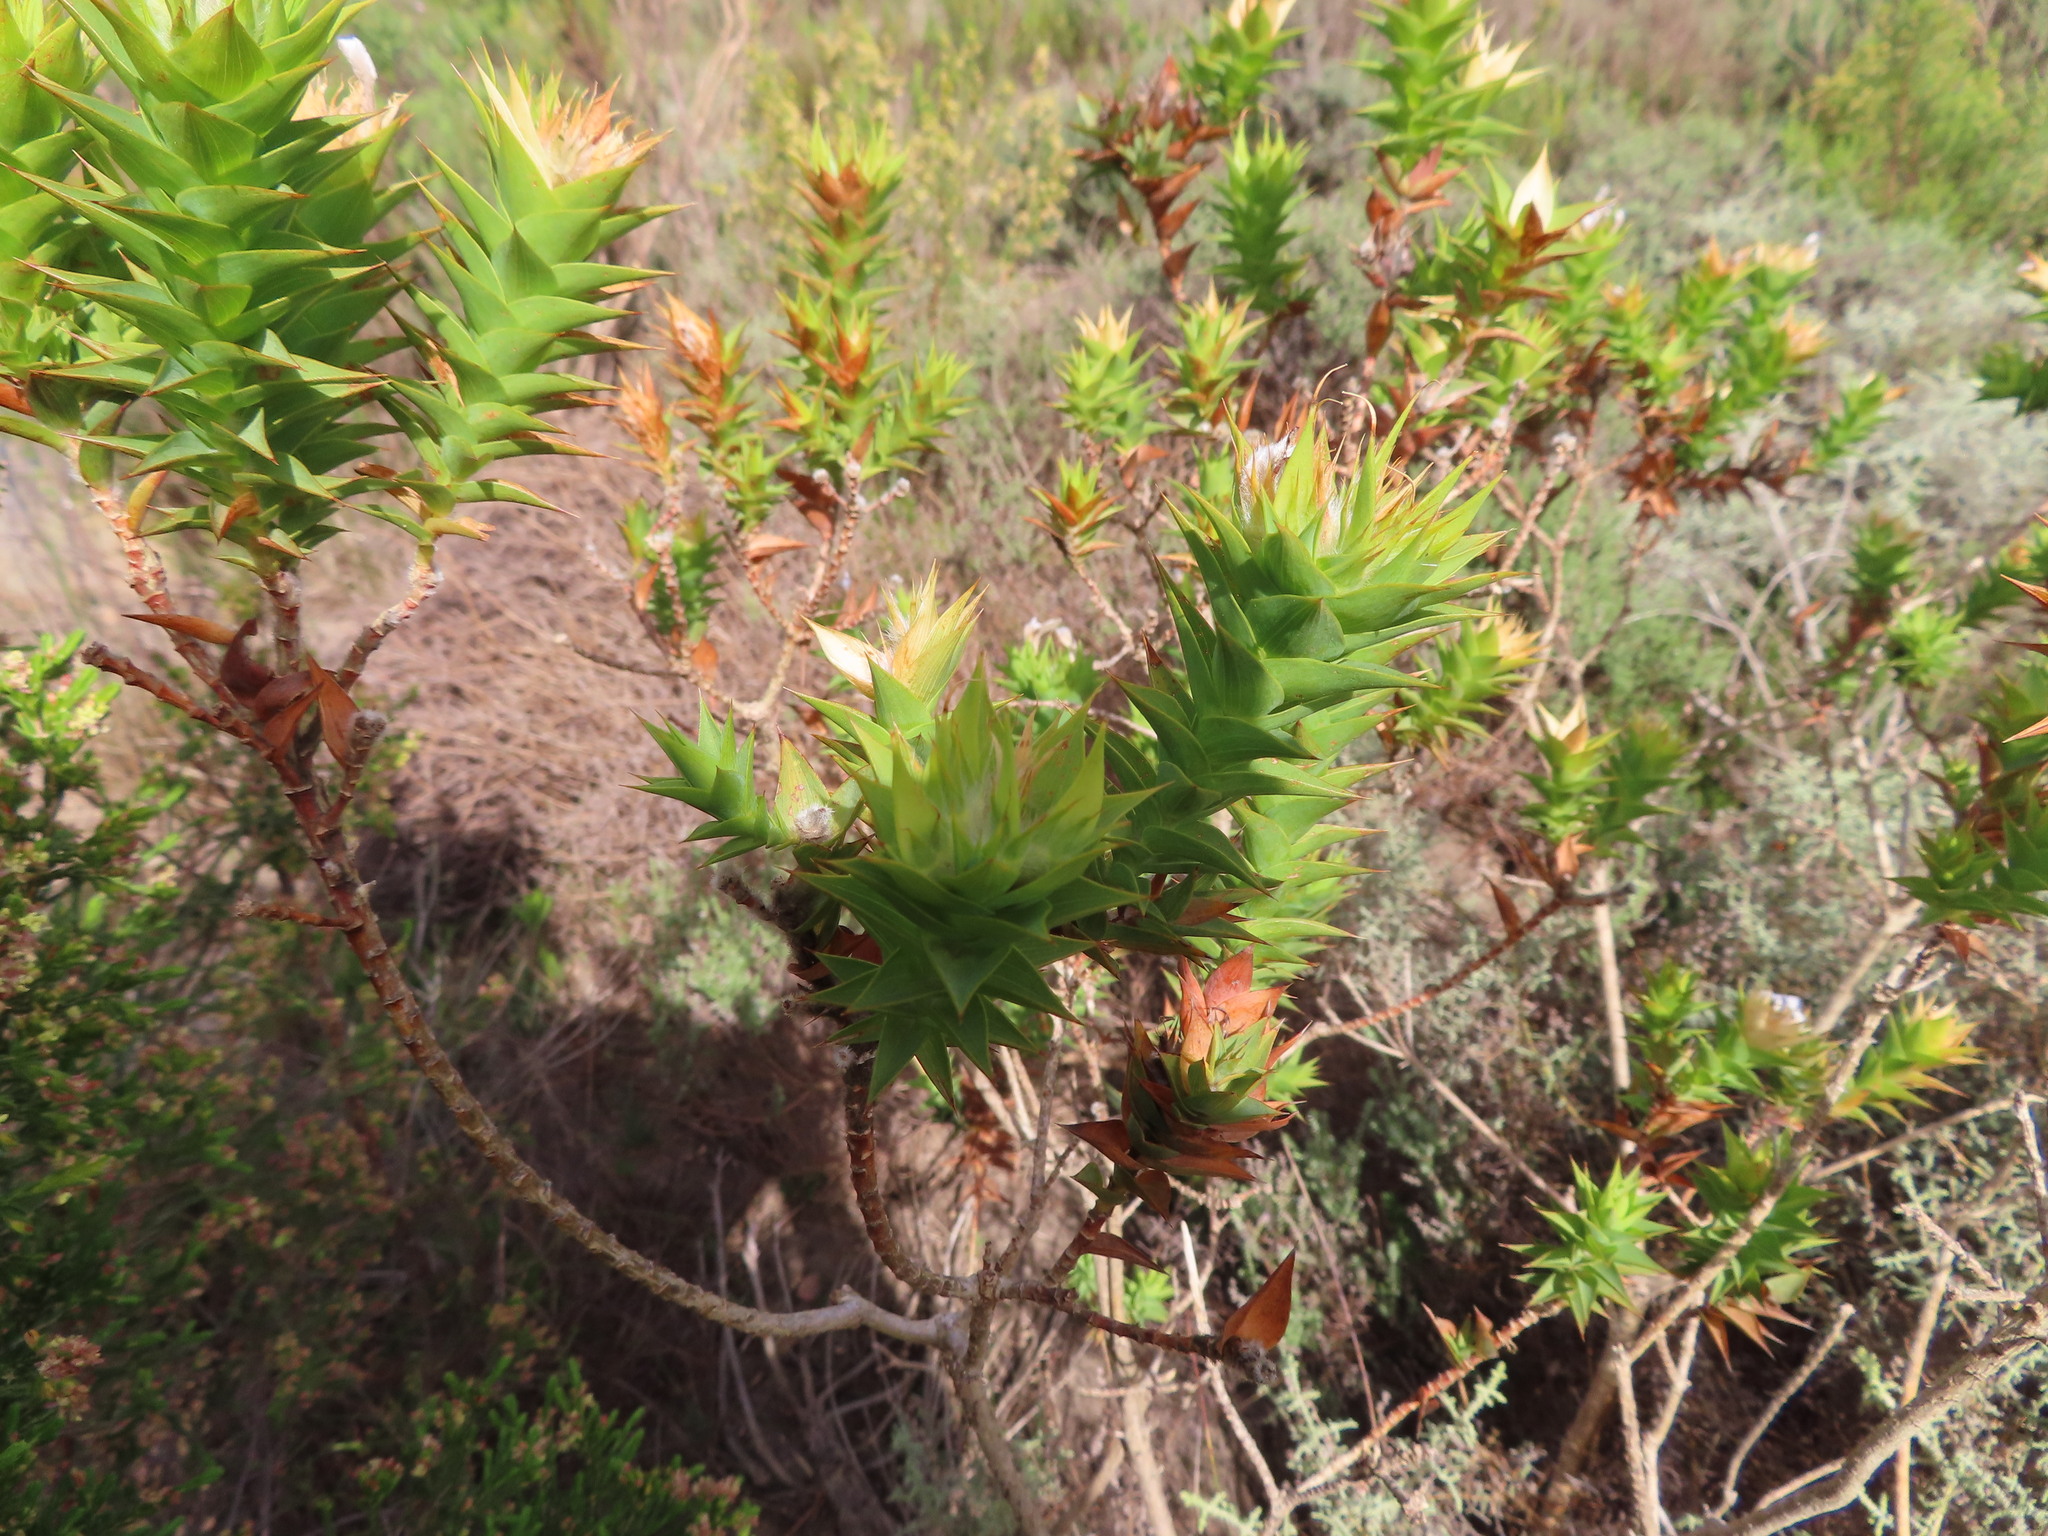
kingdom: Plantae
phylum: Tracheophyta
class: Magnoliopsida
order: Fabales
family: Fabaceae
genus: Aspalathus
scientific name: Aspalathus cordata
